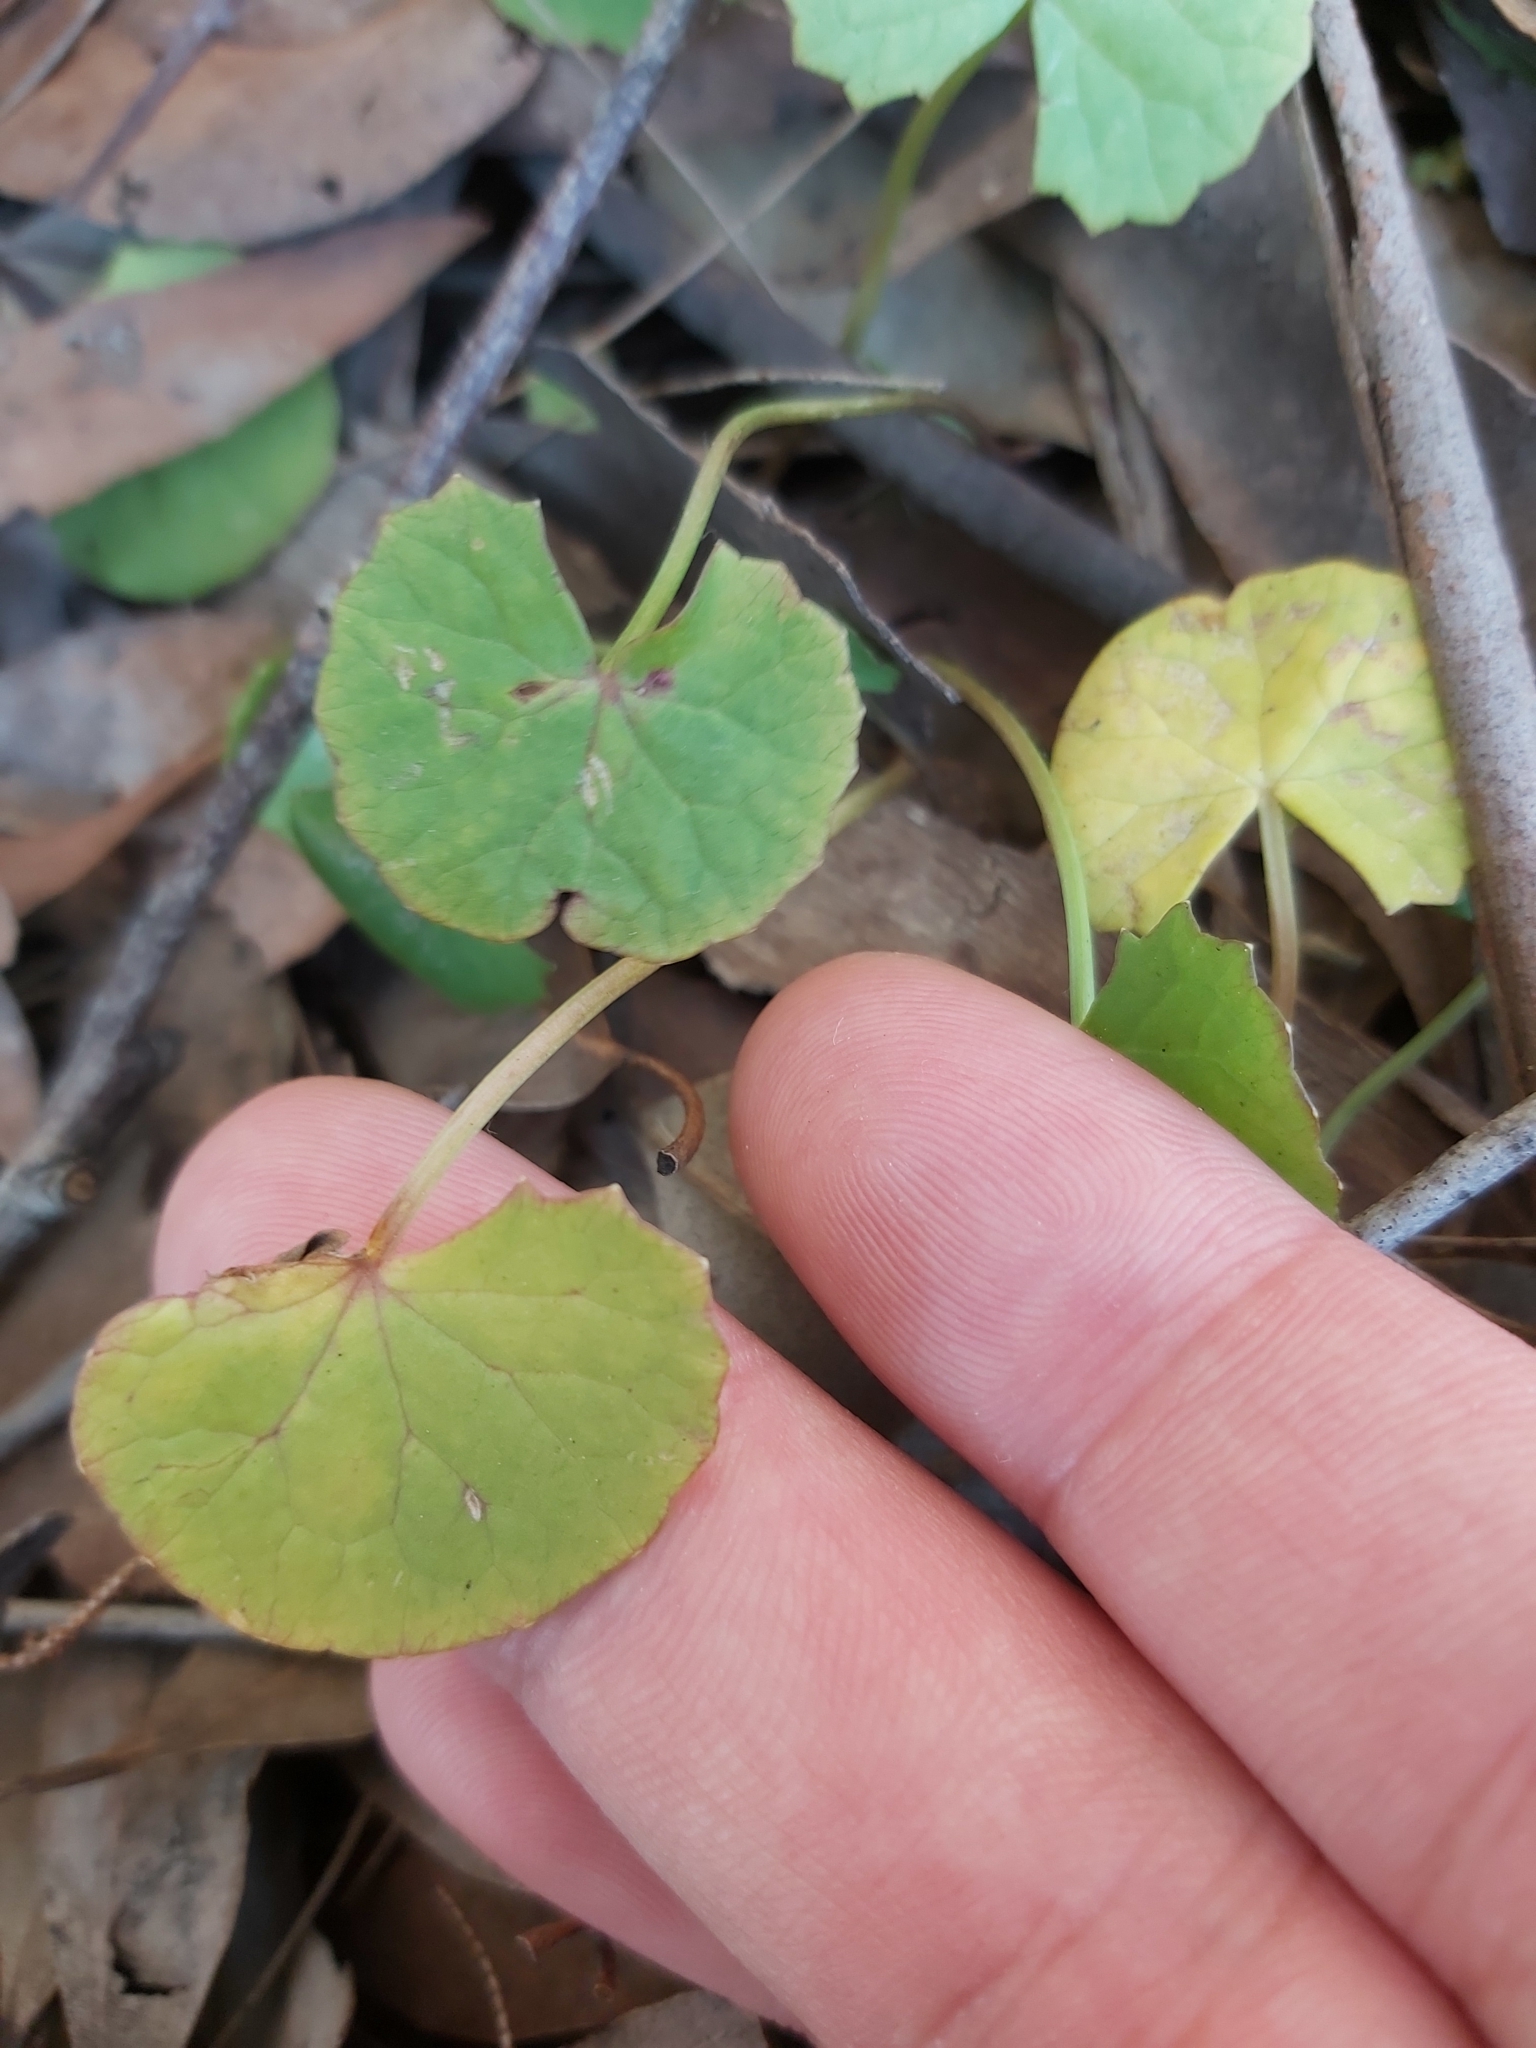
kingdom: Plantae
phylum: Tracheophyta
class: Magnoliopsida
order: Apiales
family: Apiaceae
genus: Centella
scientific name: Centella asiatica
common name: Spadeleaf
